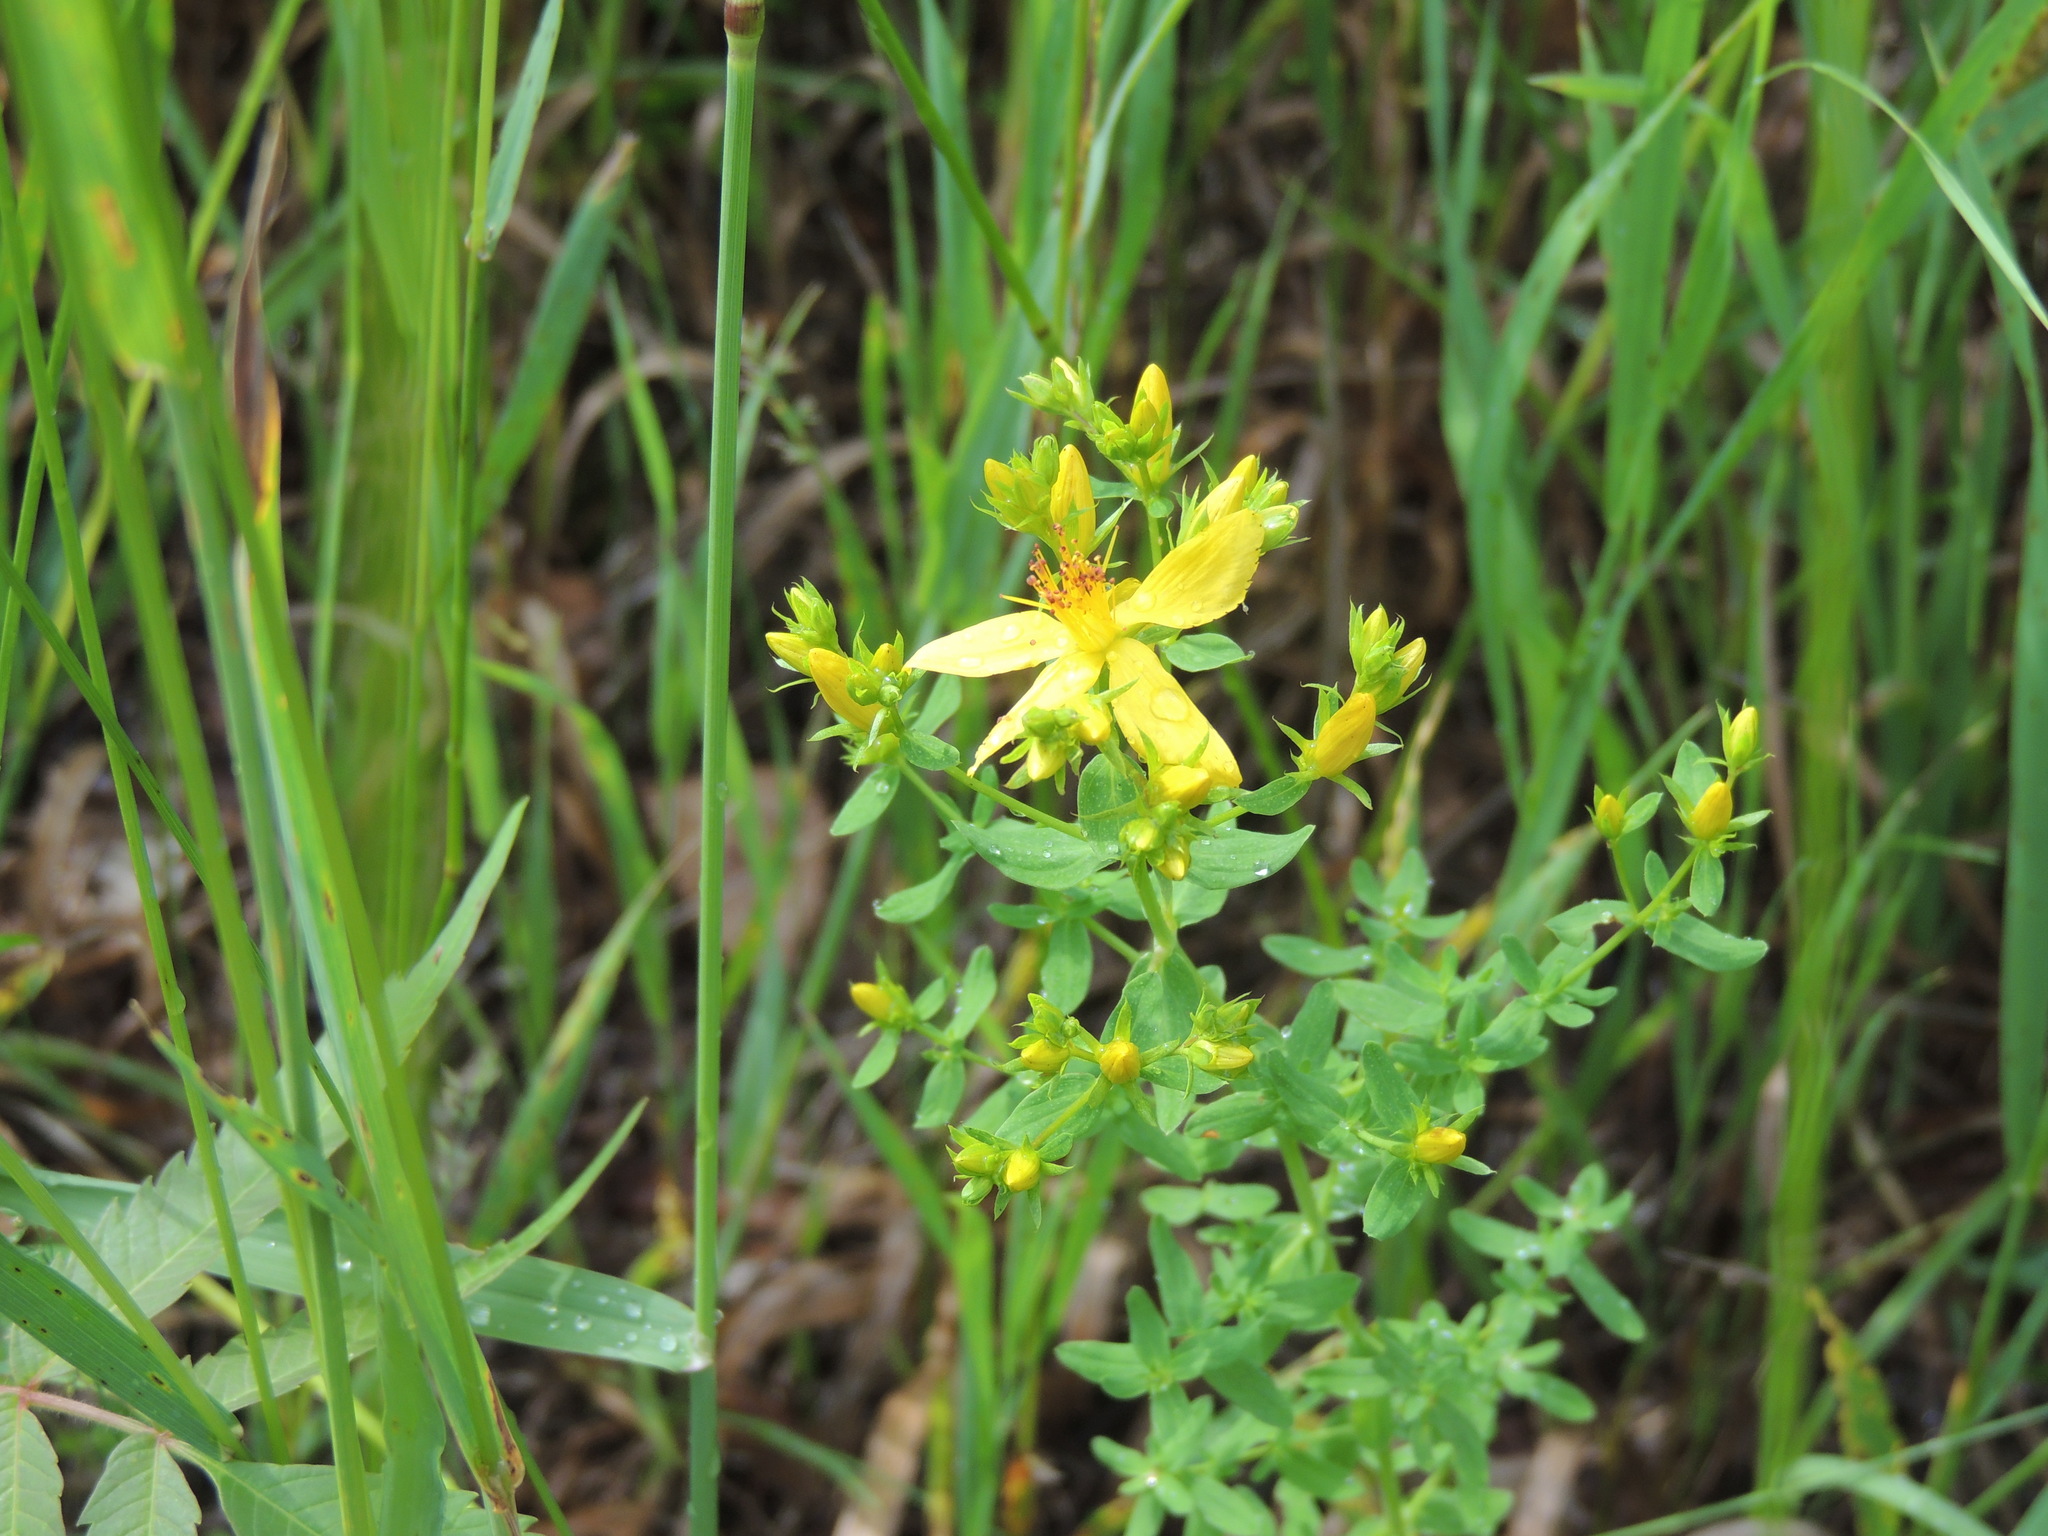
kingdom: Plantae
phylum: Tracheophyta
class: Magnoliopsida
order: Malpighiales
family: Hypericaceae
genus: Hypericum
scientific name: Hypericum perforatum
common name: Common st. johnswort
